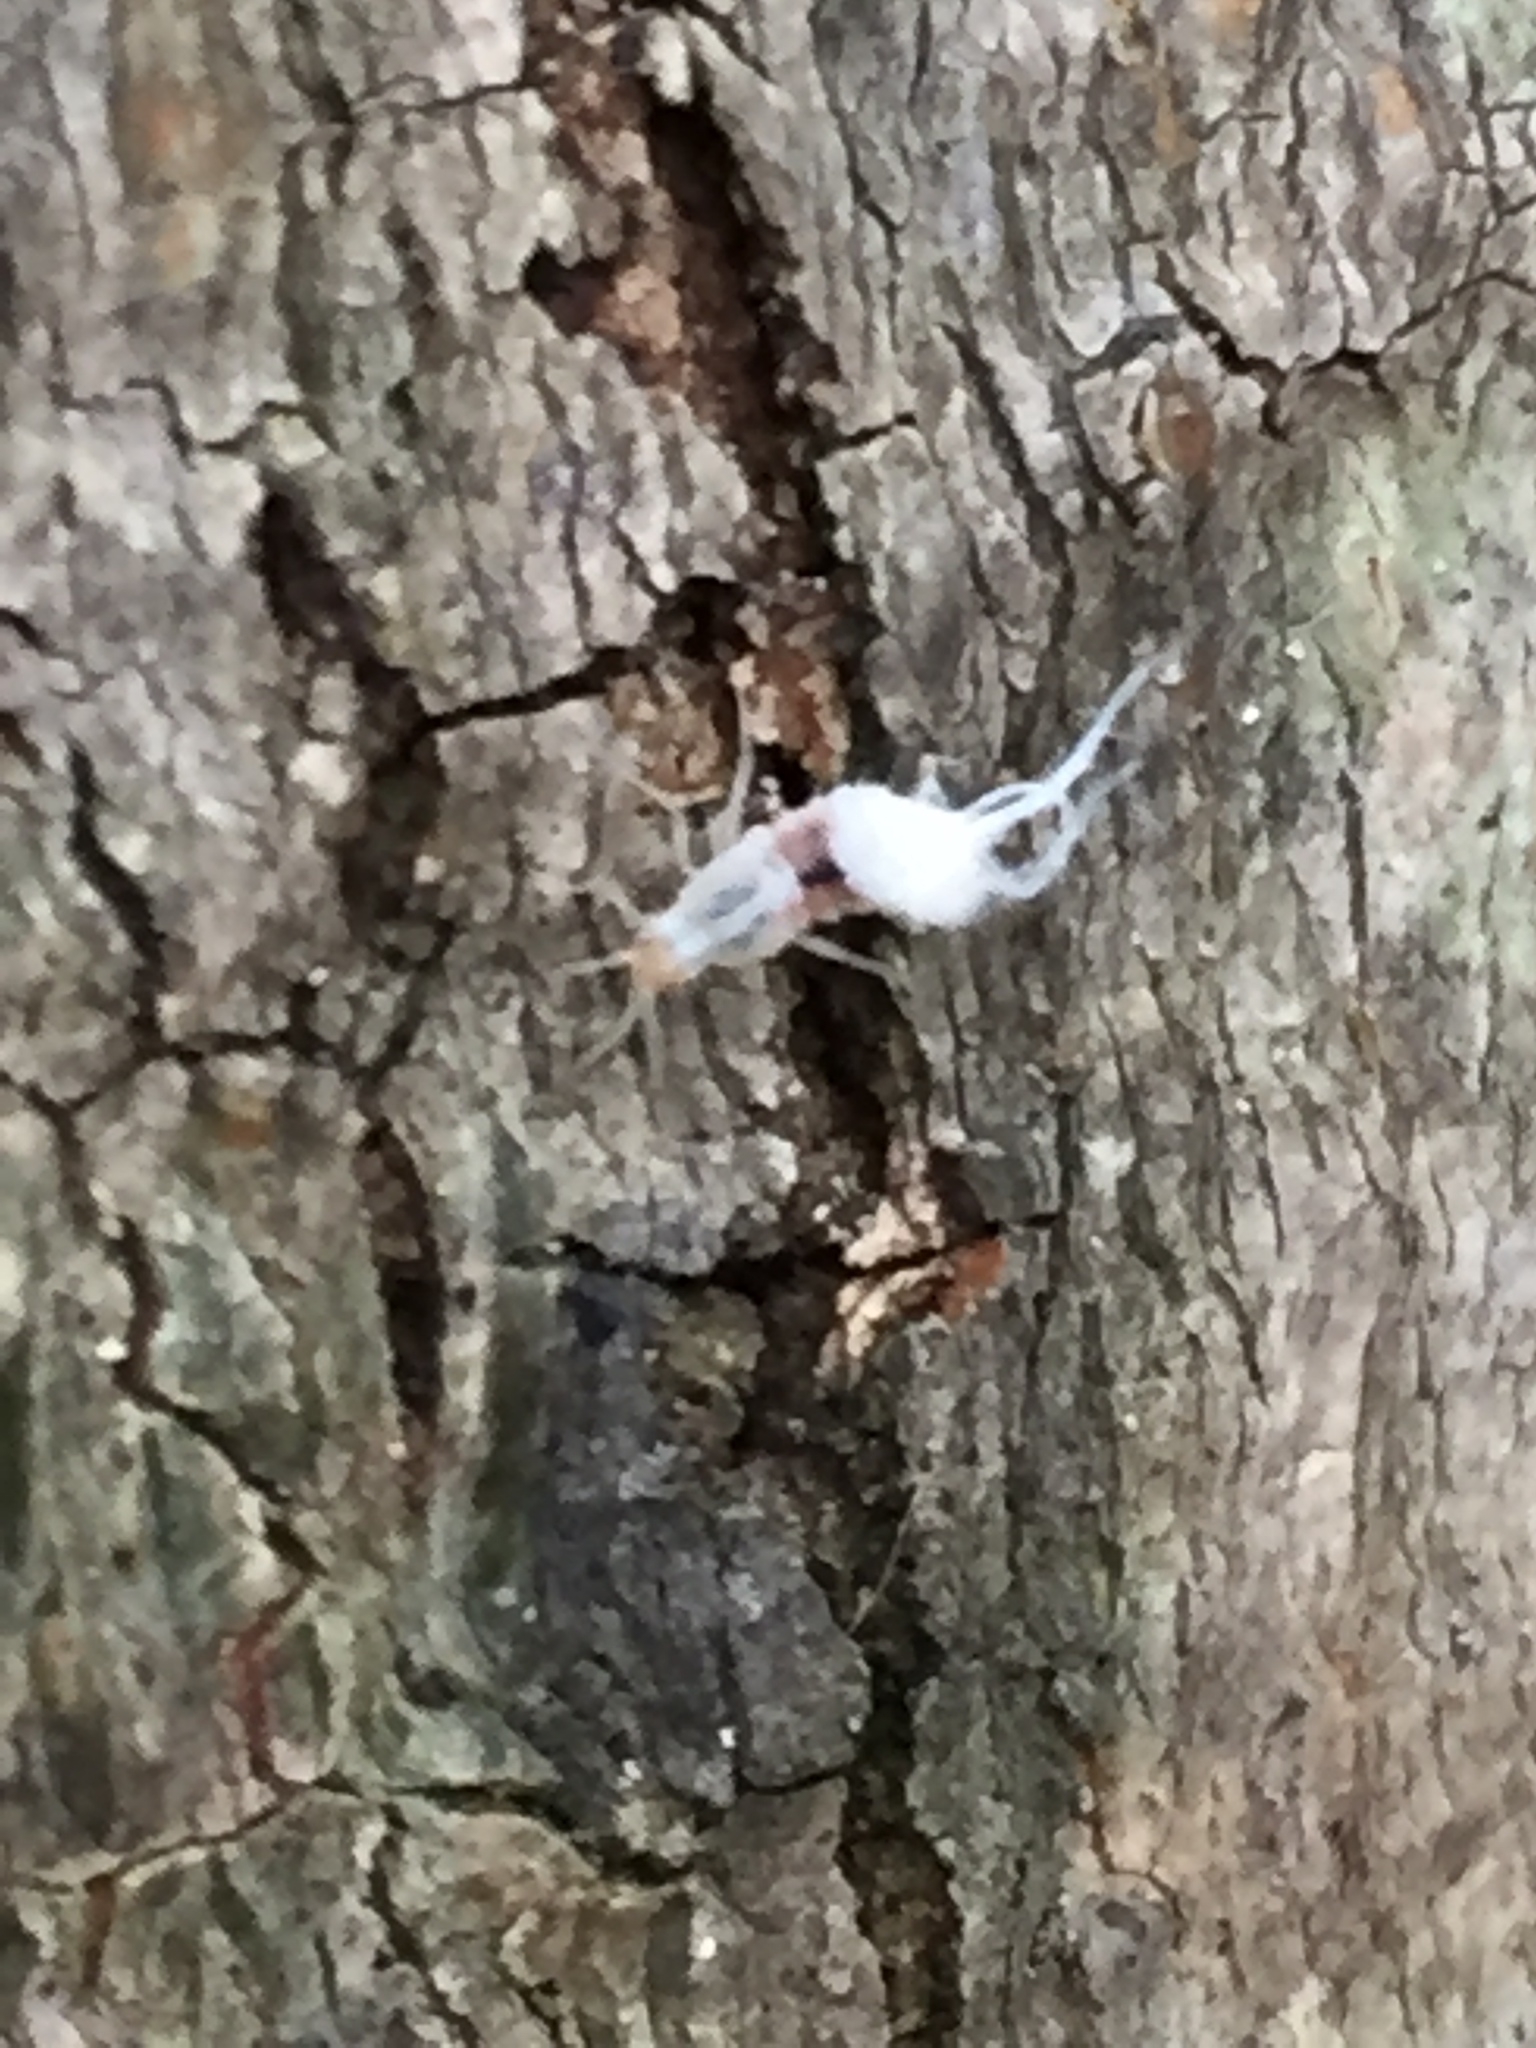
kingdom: Animalia
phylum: Arthropoda
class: Insecta
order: Hemiptera
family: Aphididae
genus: Grylloprociphilus
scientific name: Grylloprociphilus imbricator
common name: Beech blight aphid
